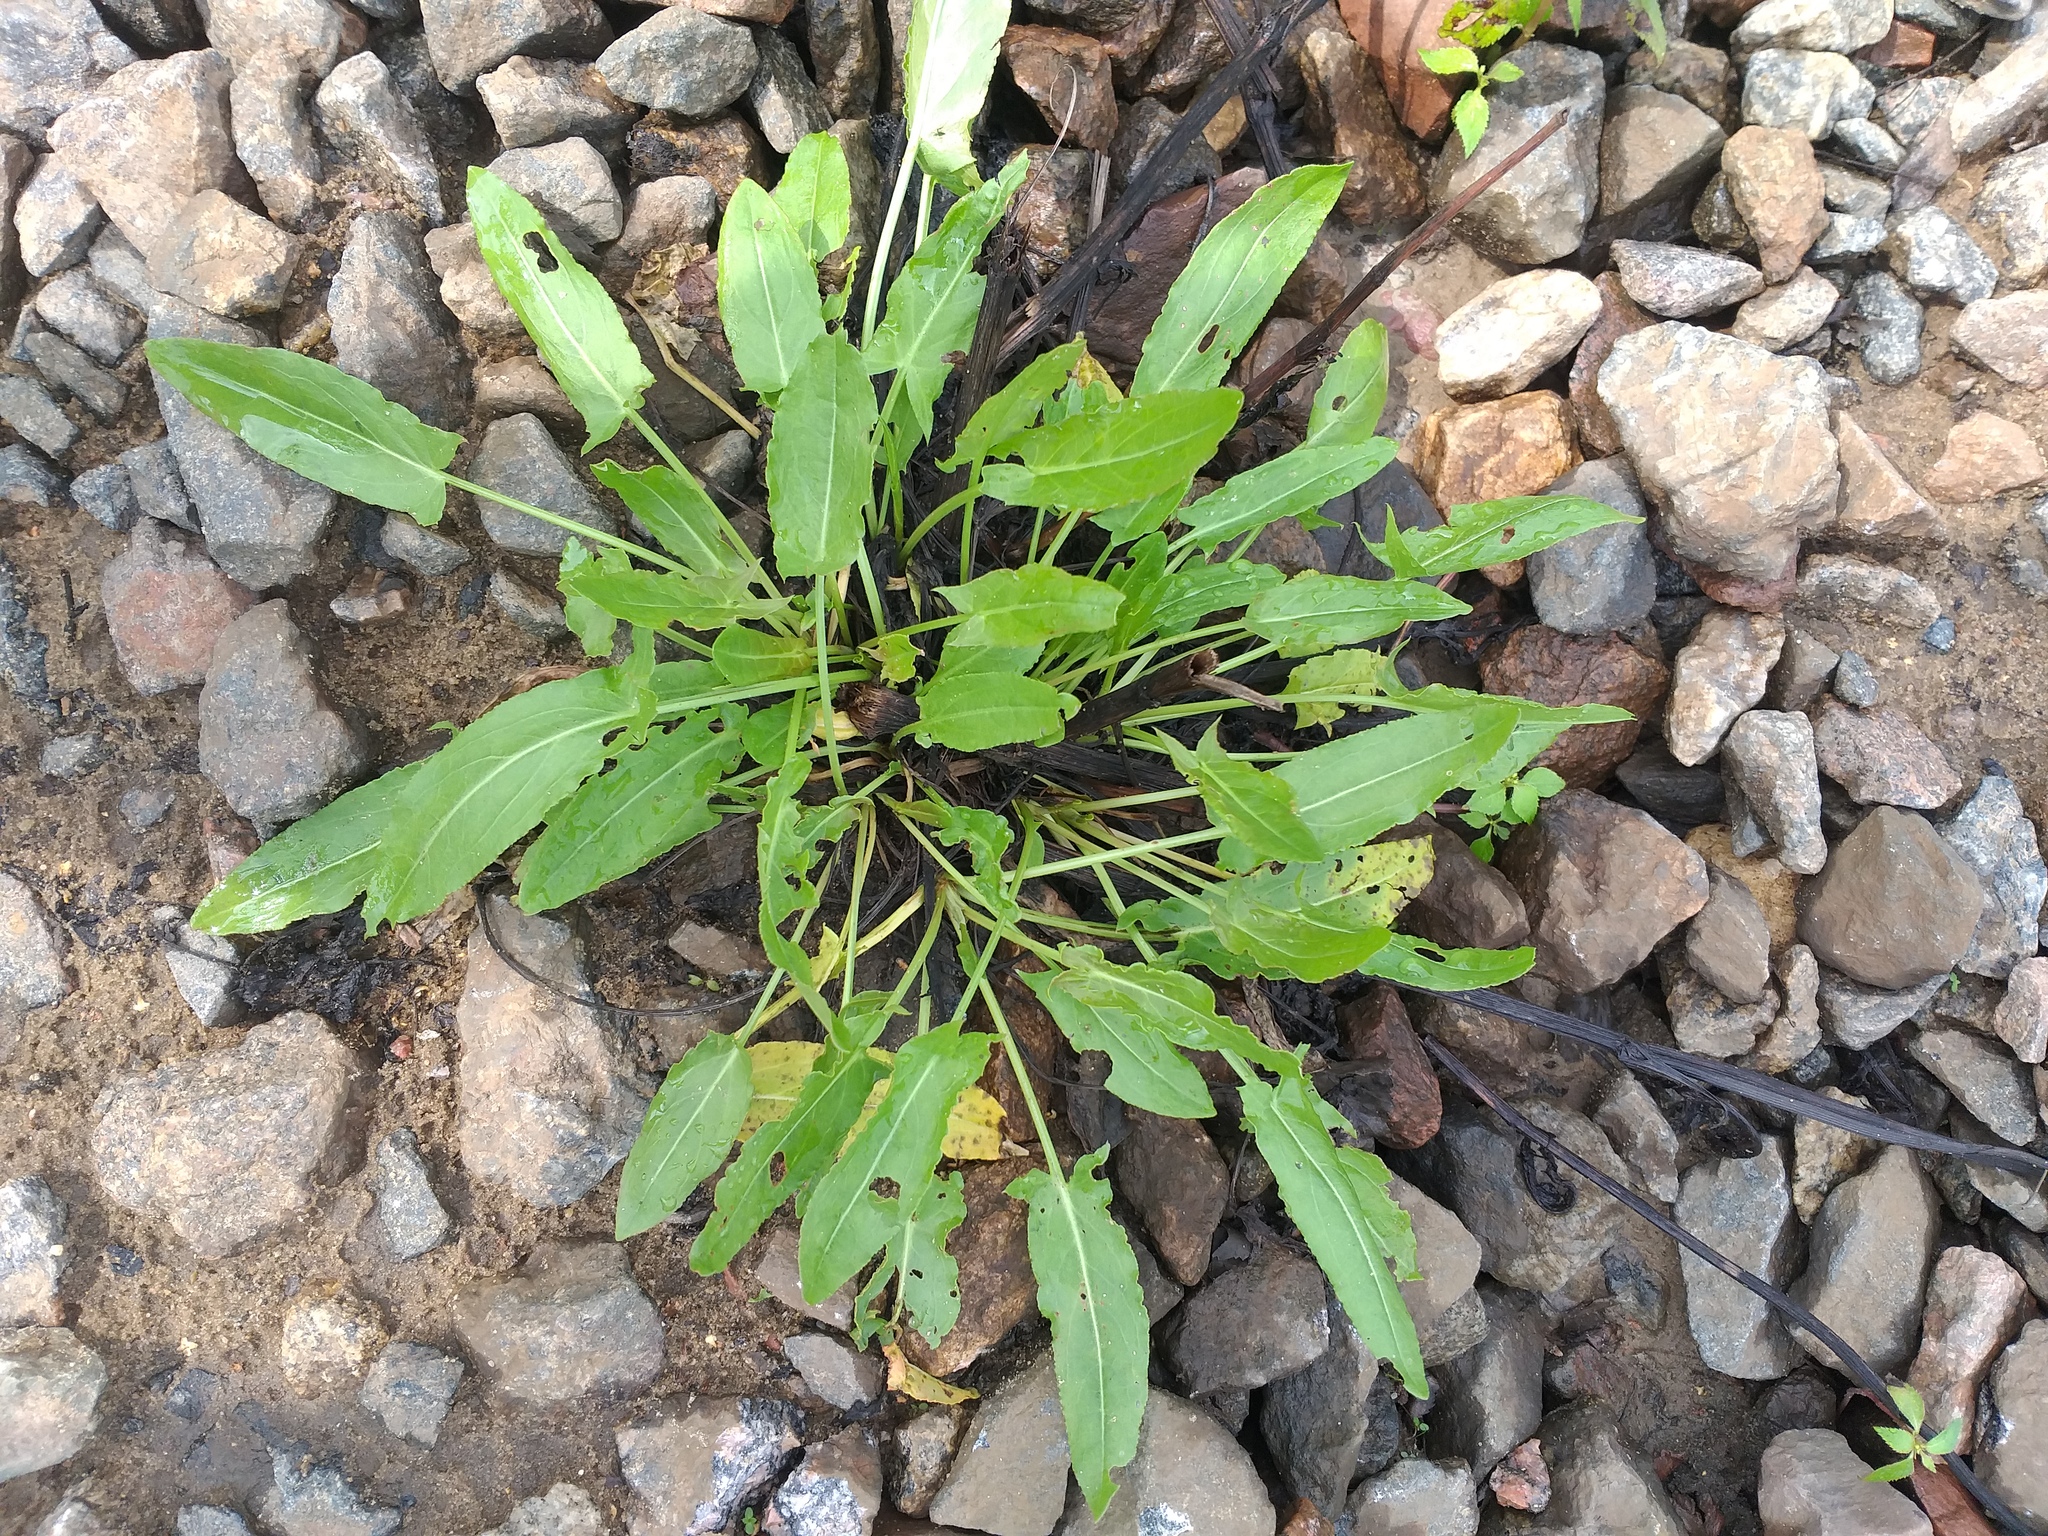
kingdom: Plantae
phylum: Tracheophyta
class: Magnoliopsida
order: Caryophyllales
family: Polygonaceae
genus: Rumex
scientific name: Rumex thyrsiflorus
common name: Garden sorrel
